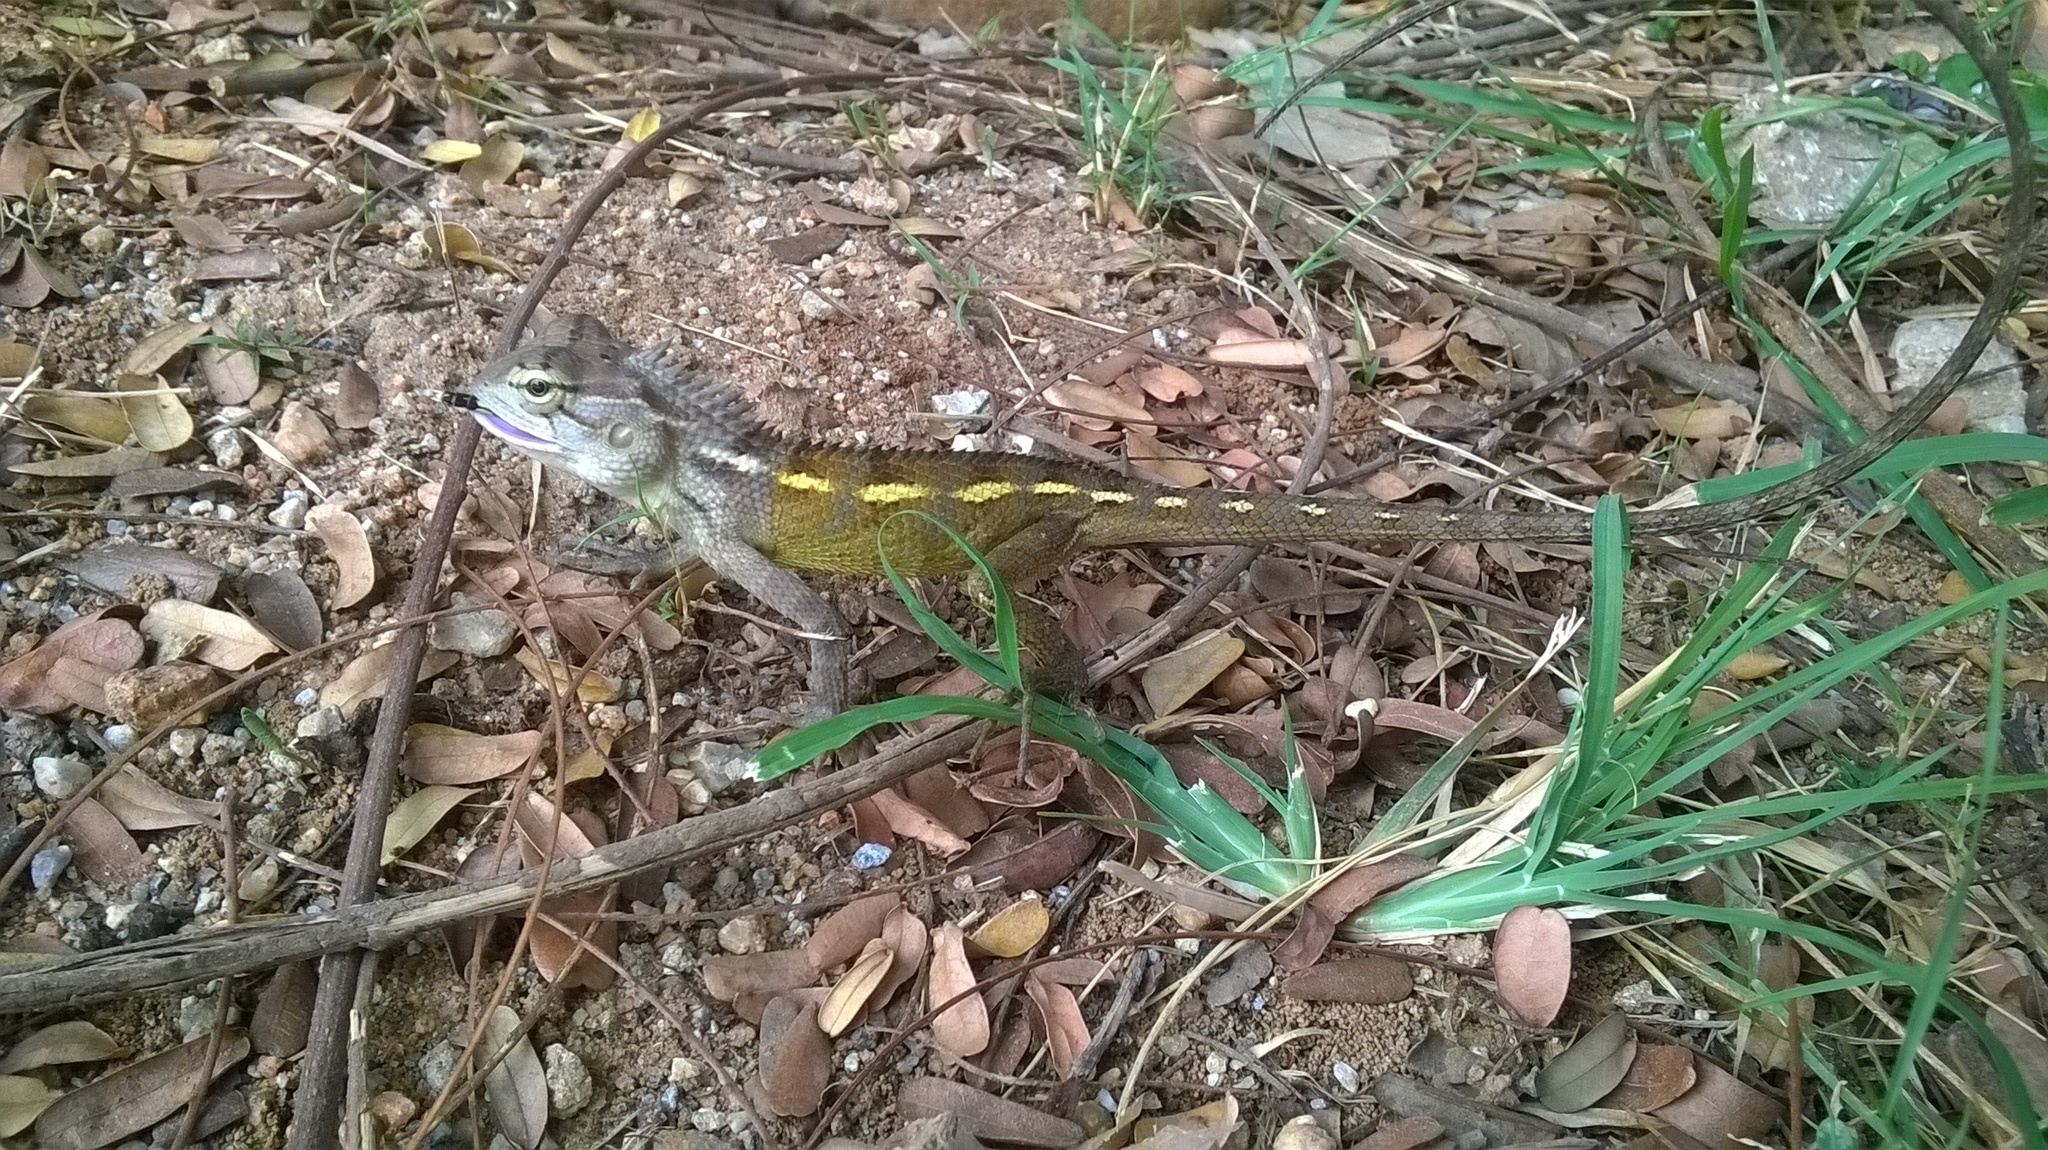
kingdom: Animalia
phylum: Chordata
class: Squamata
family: Agamidae
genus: Calotes
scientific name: Calotes versicolor
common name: Oriental garden lizard
